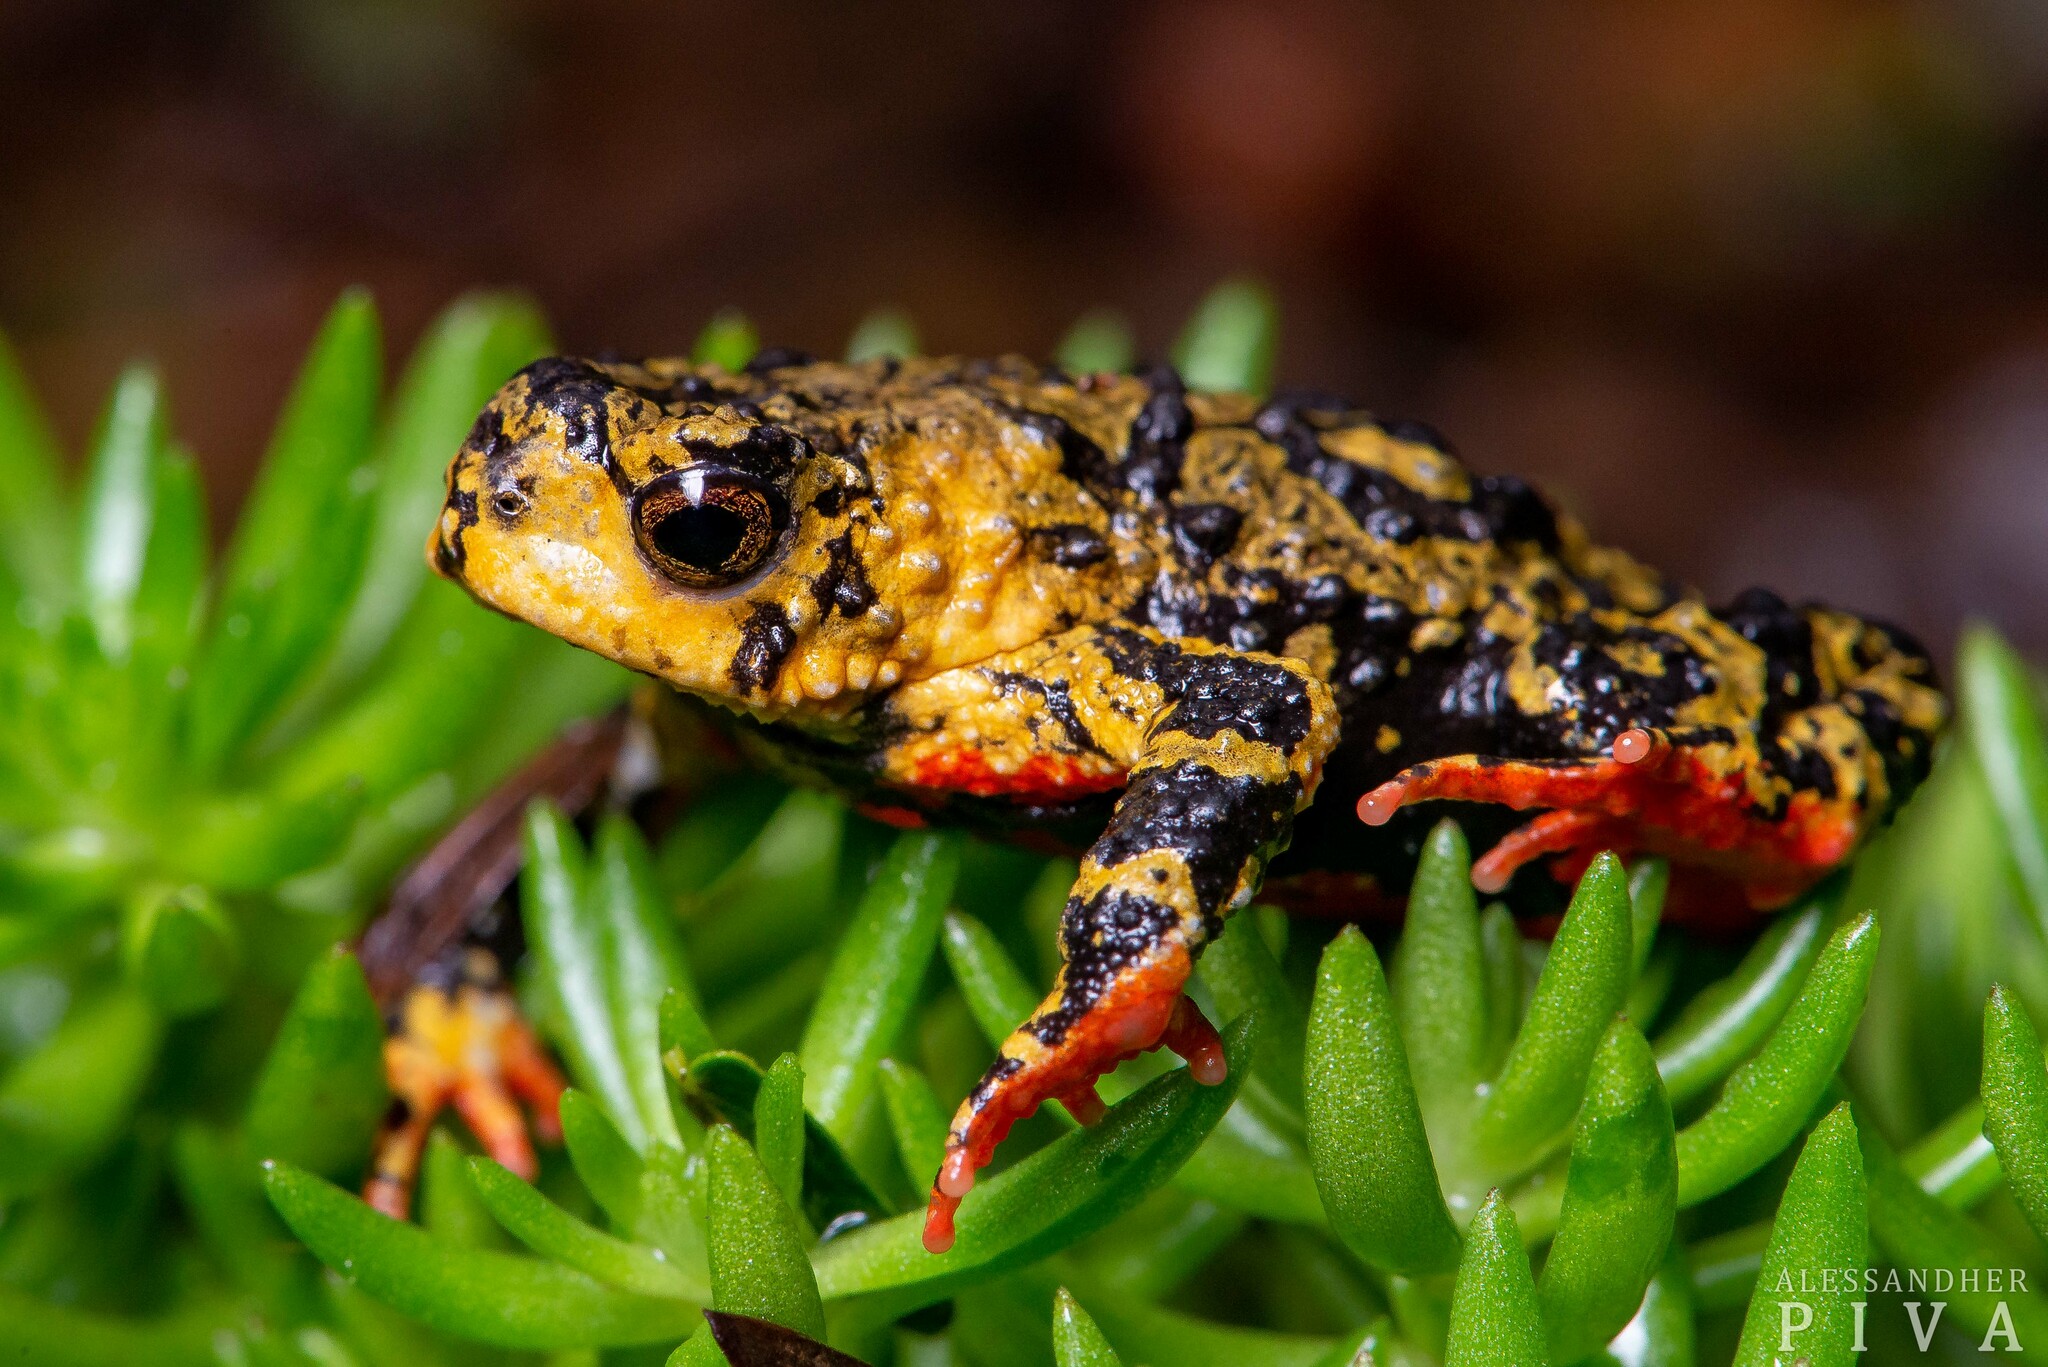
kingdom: Animalia
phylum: Chordata
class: Amphibia
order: Anura
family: Bufonidae
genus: Melanophryniscus
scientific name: Melanophryniscus spectabilis
